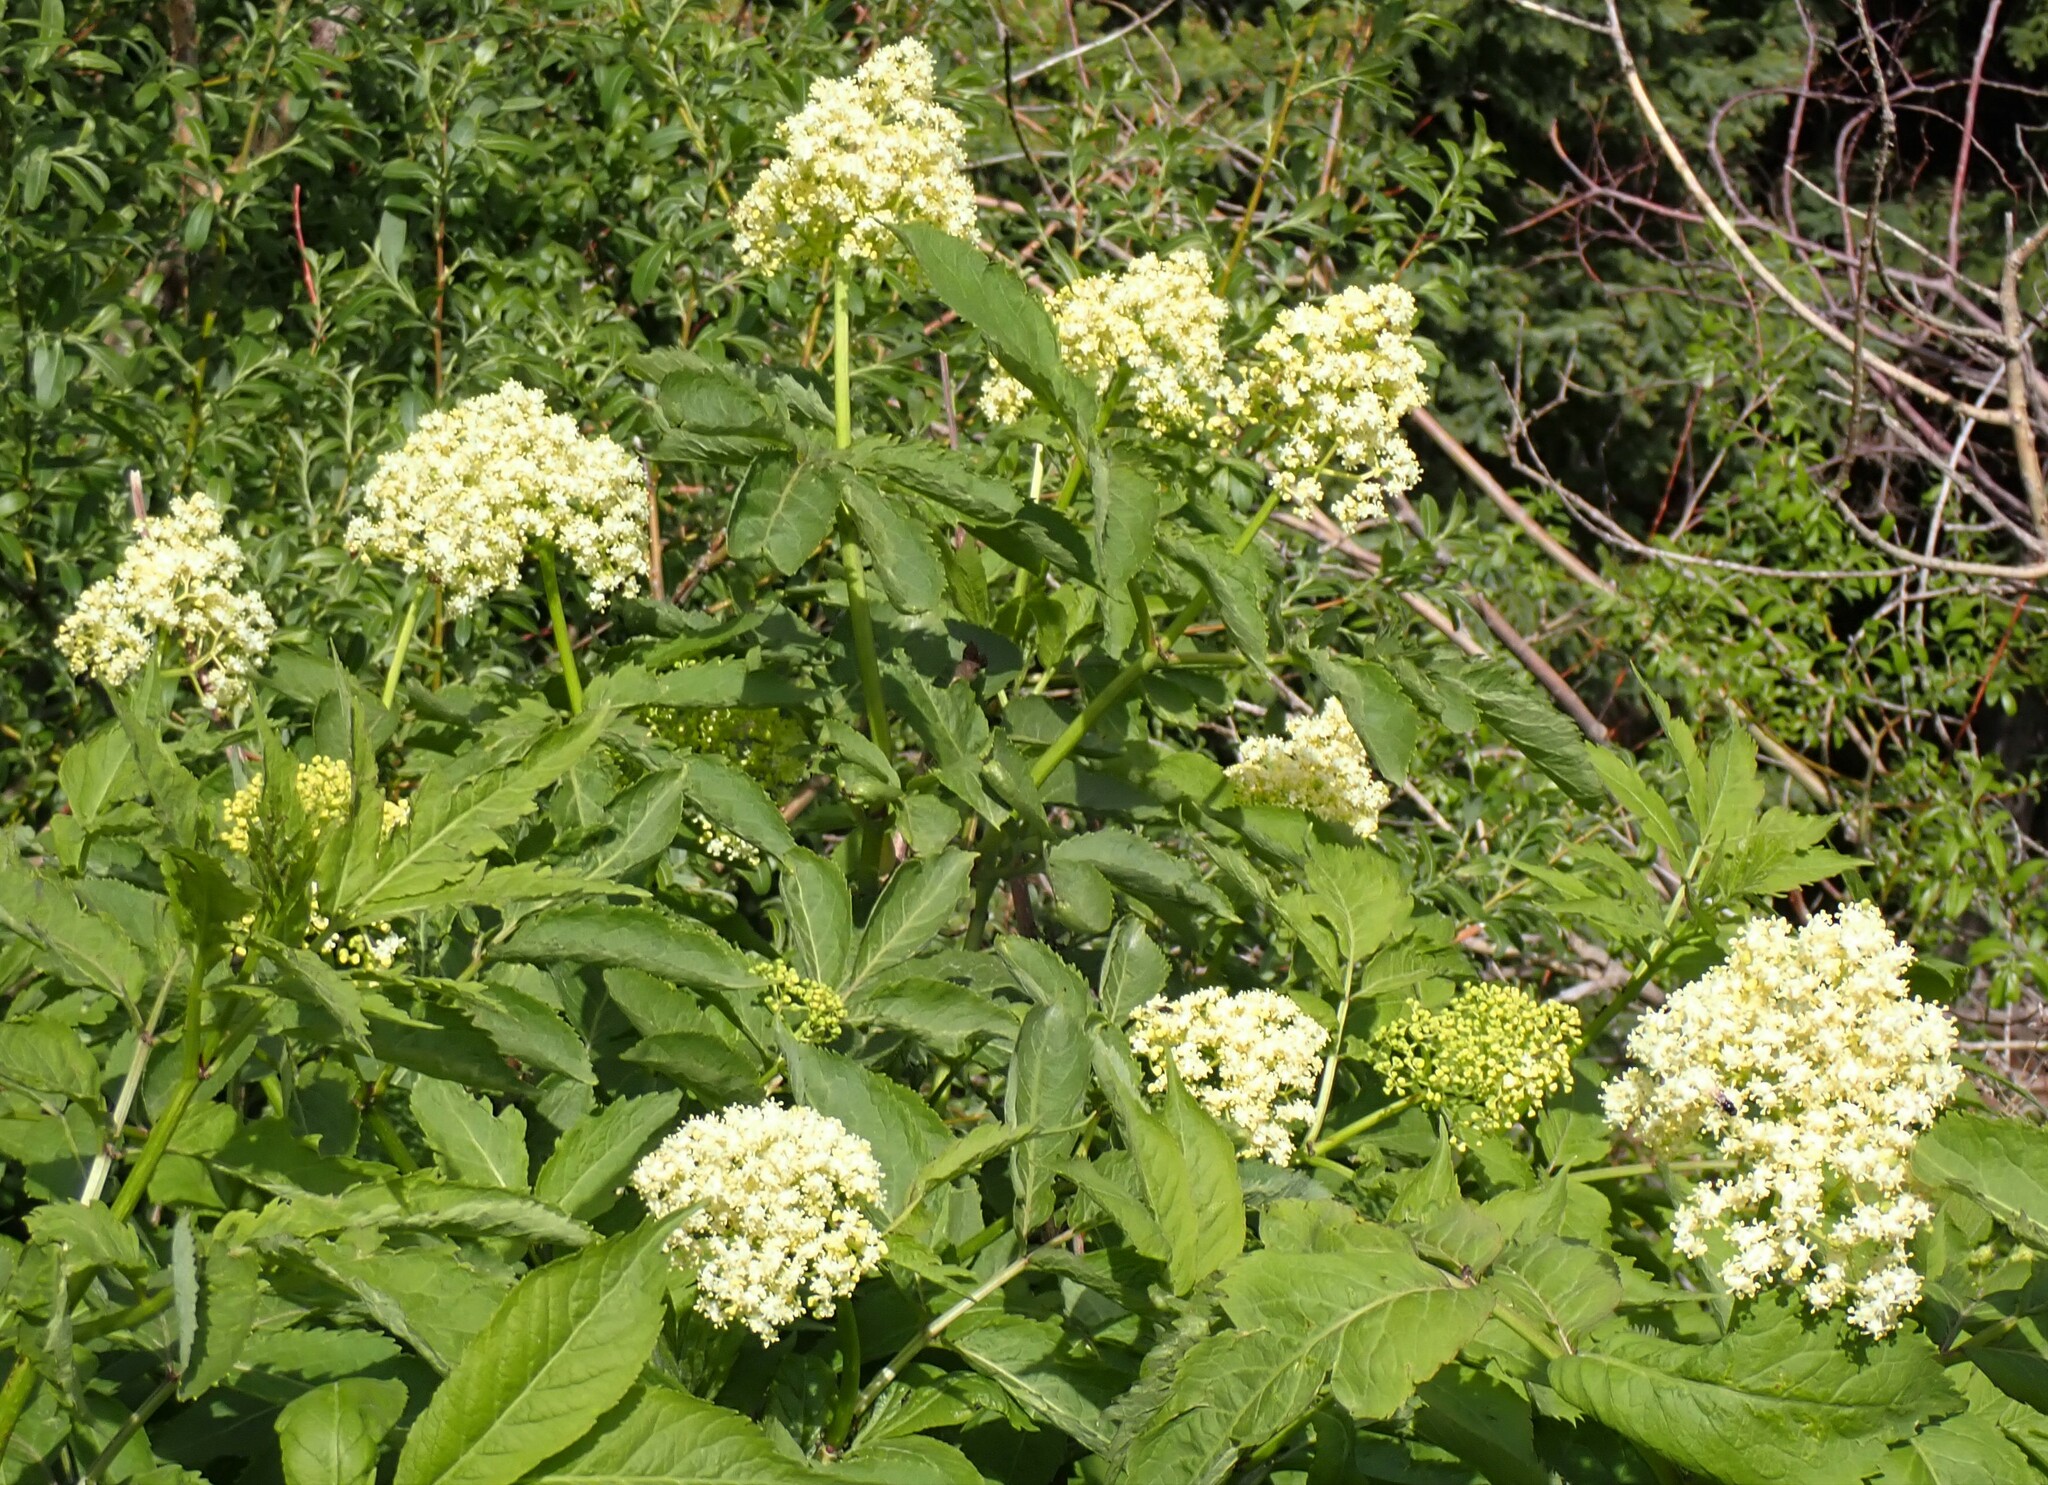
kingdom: Plantae
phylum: Tracheophyta
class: Magnoliopsida
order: Dipsacales
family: Viburnaceae
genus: Sambucus
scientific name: Sambucus racemosa
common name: Red-berried elder
